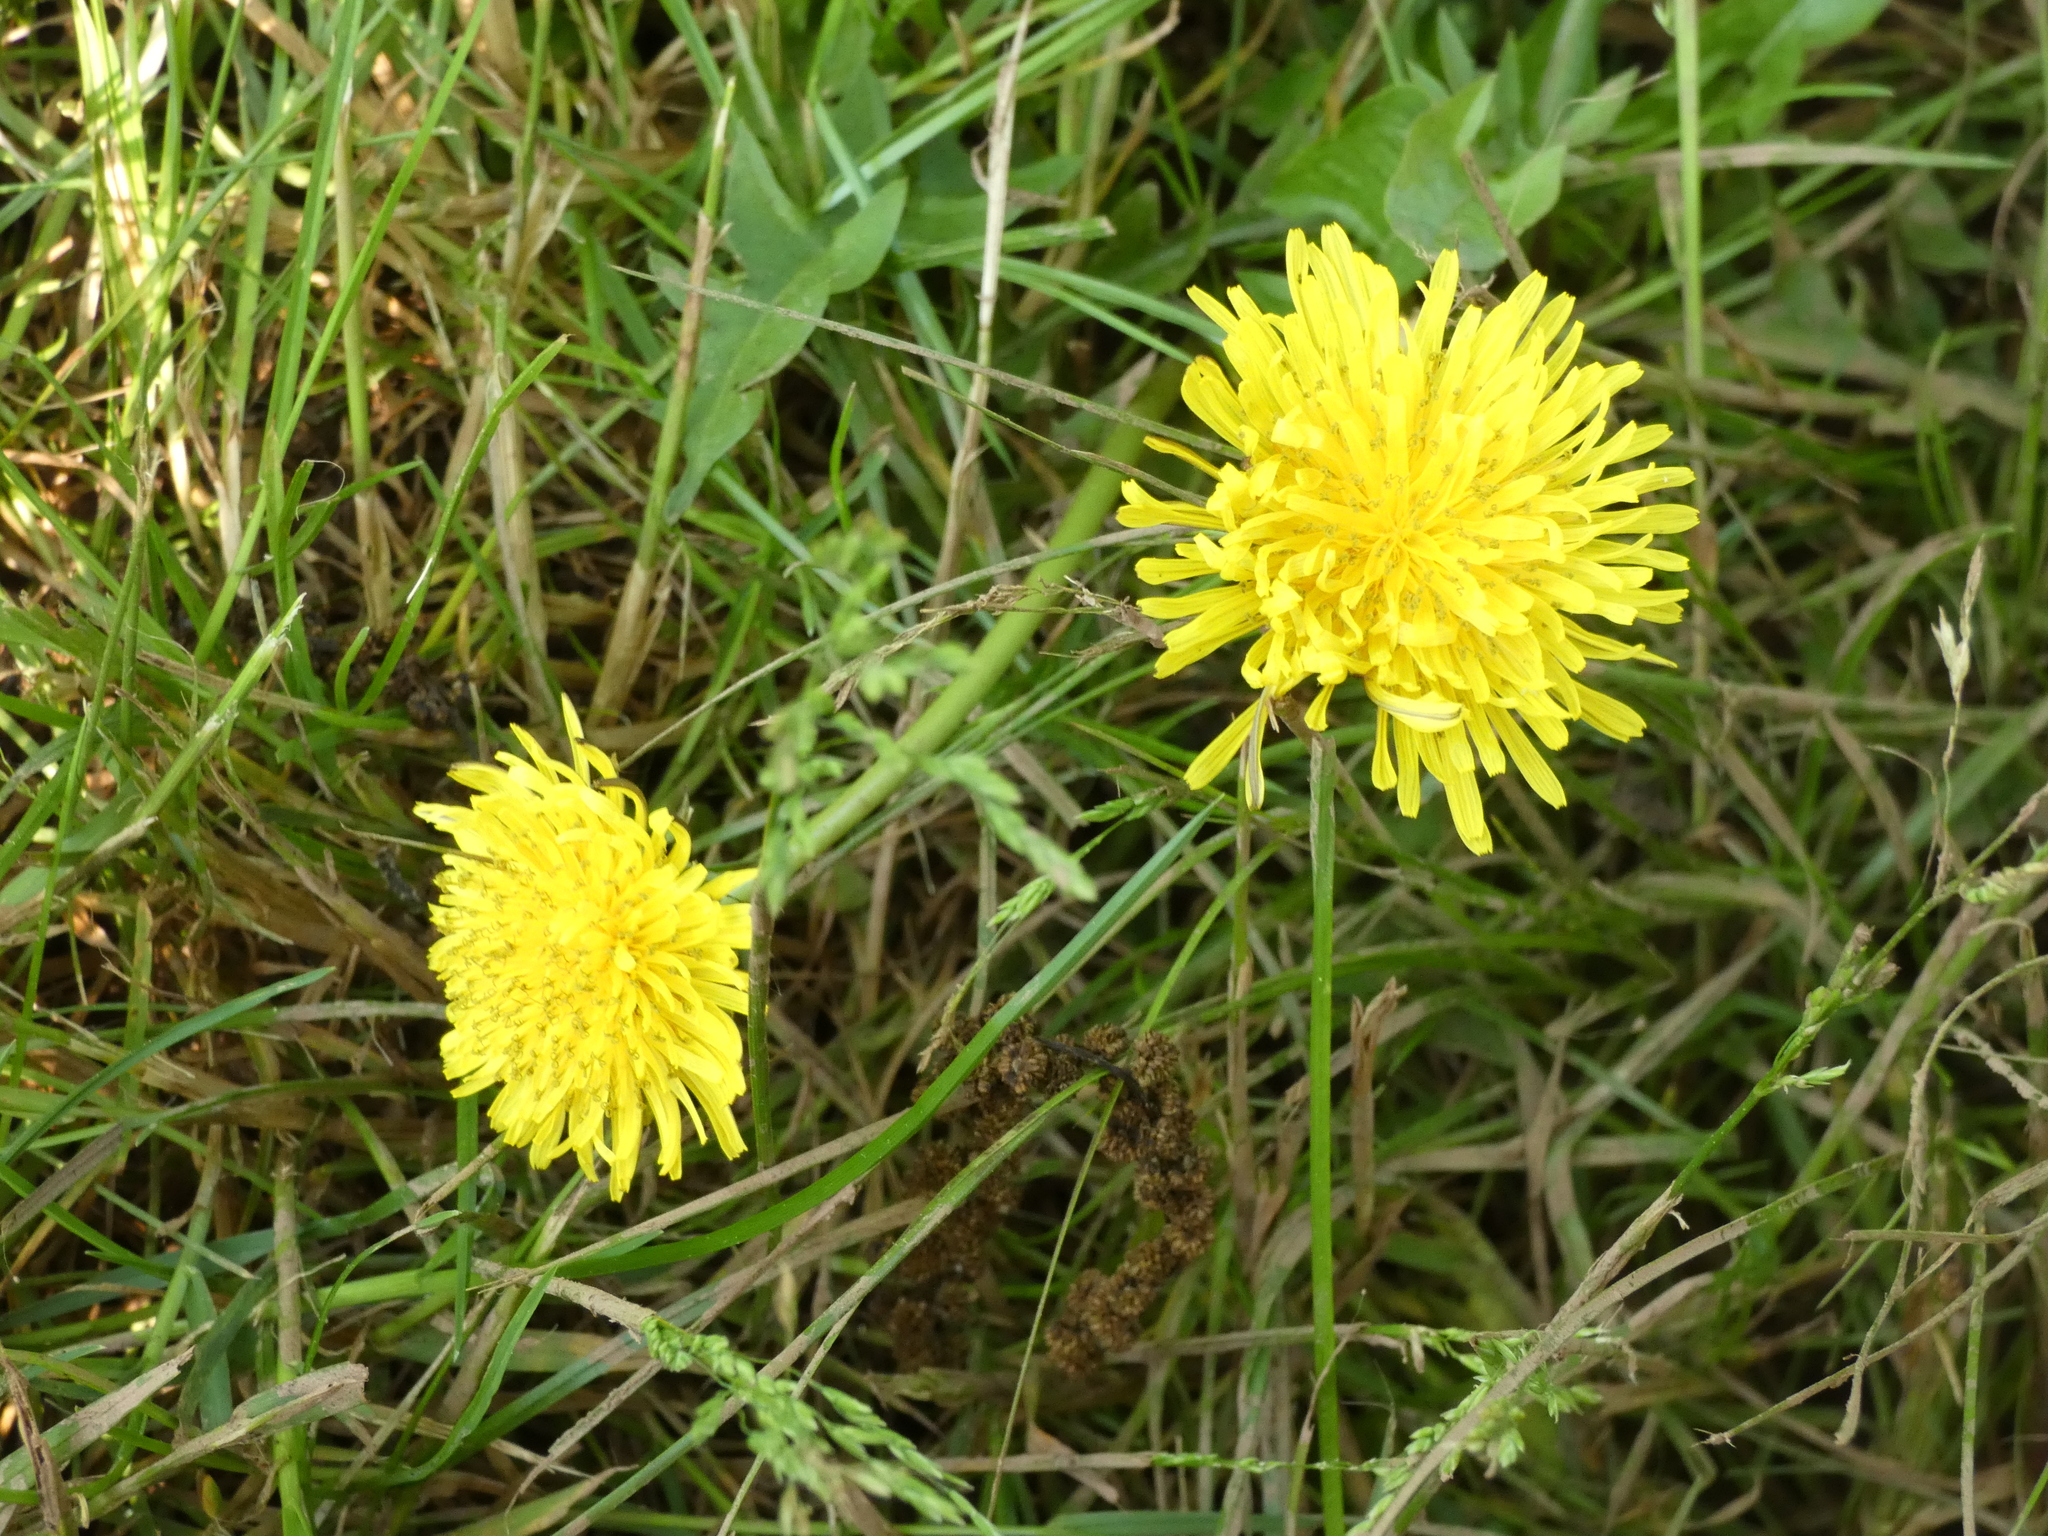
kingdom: Plantae
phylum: Tracheophyta
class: Magnoliopsida
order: Asterales
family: Asteraceae
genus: Taraxacum
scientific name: Taraxacum
